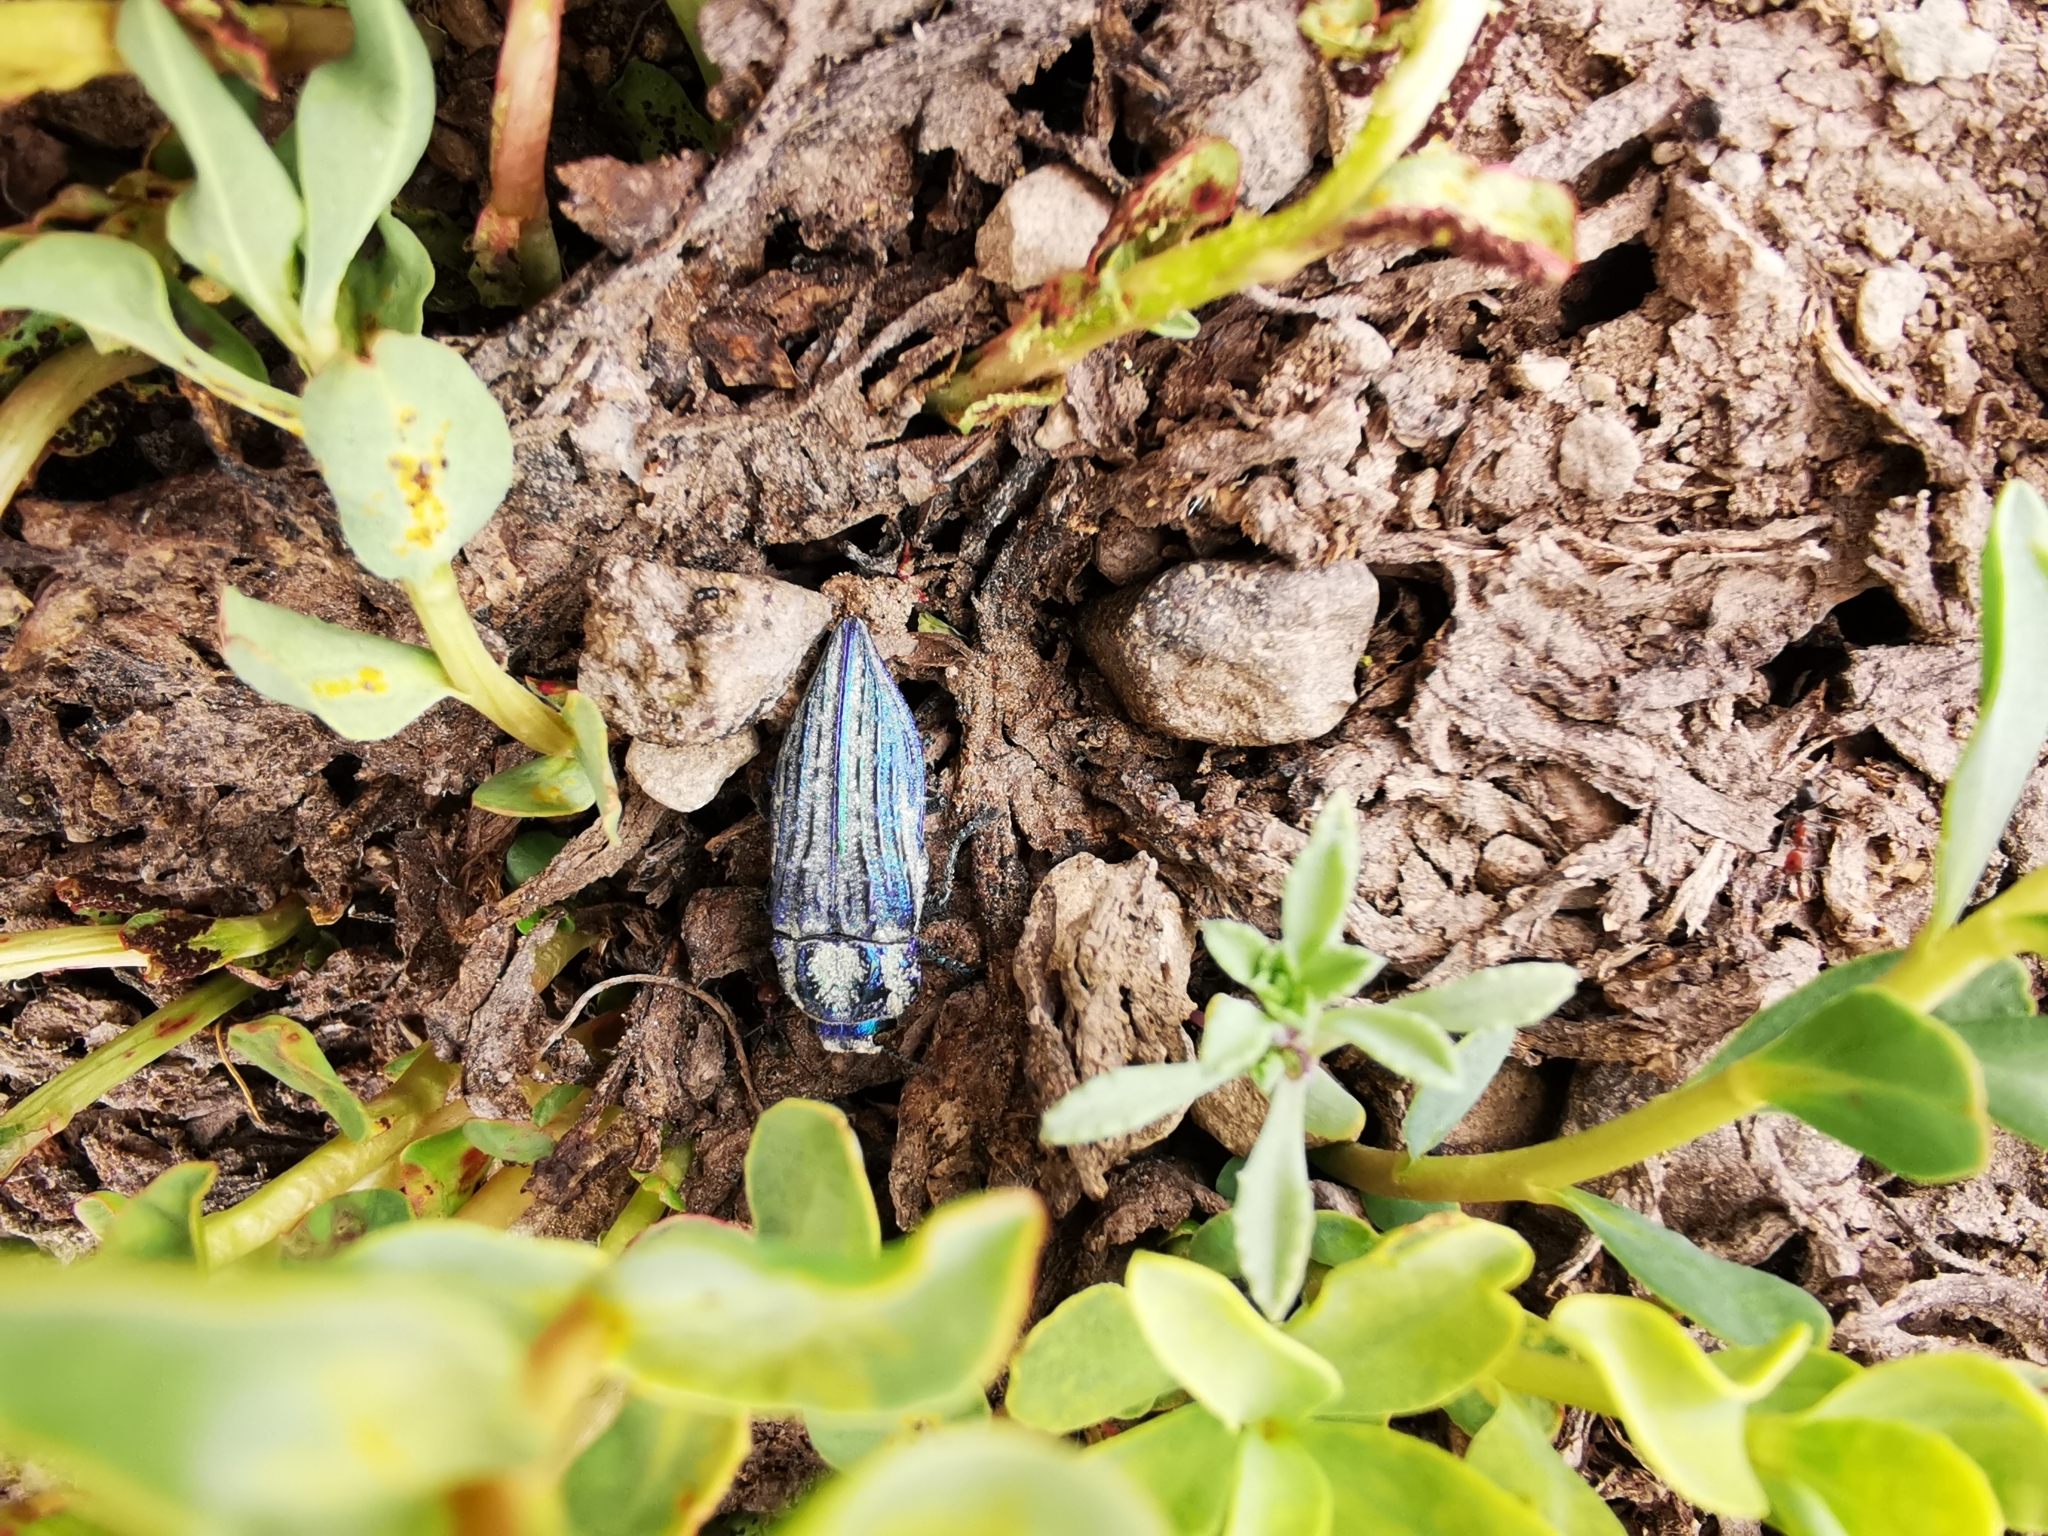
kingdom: Animalia
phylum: Arthropoda
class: Insecta
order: Coleoptera
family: Buprestidae
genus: Ectinogonia
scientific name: Ectinogonia speciosa
